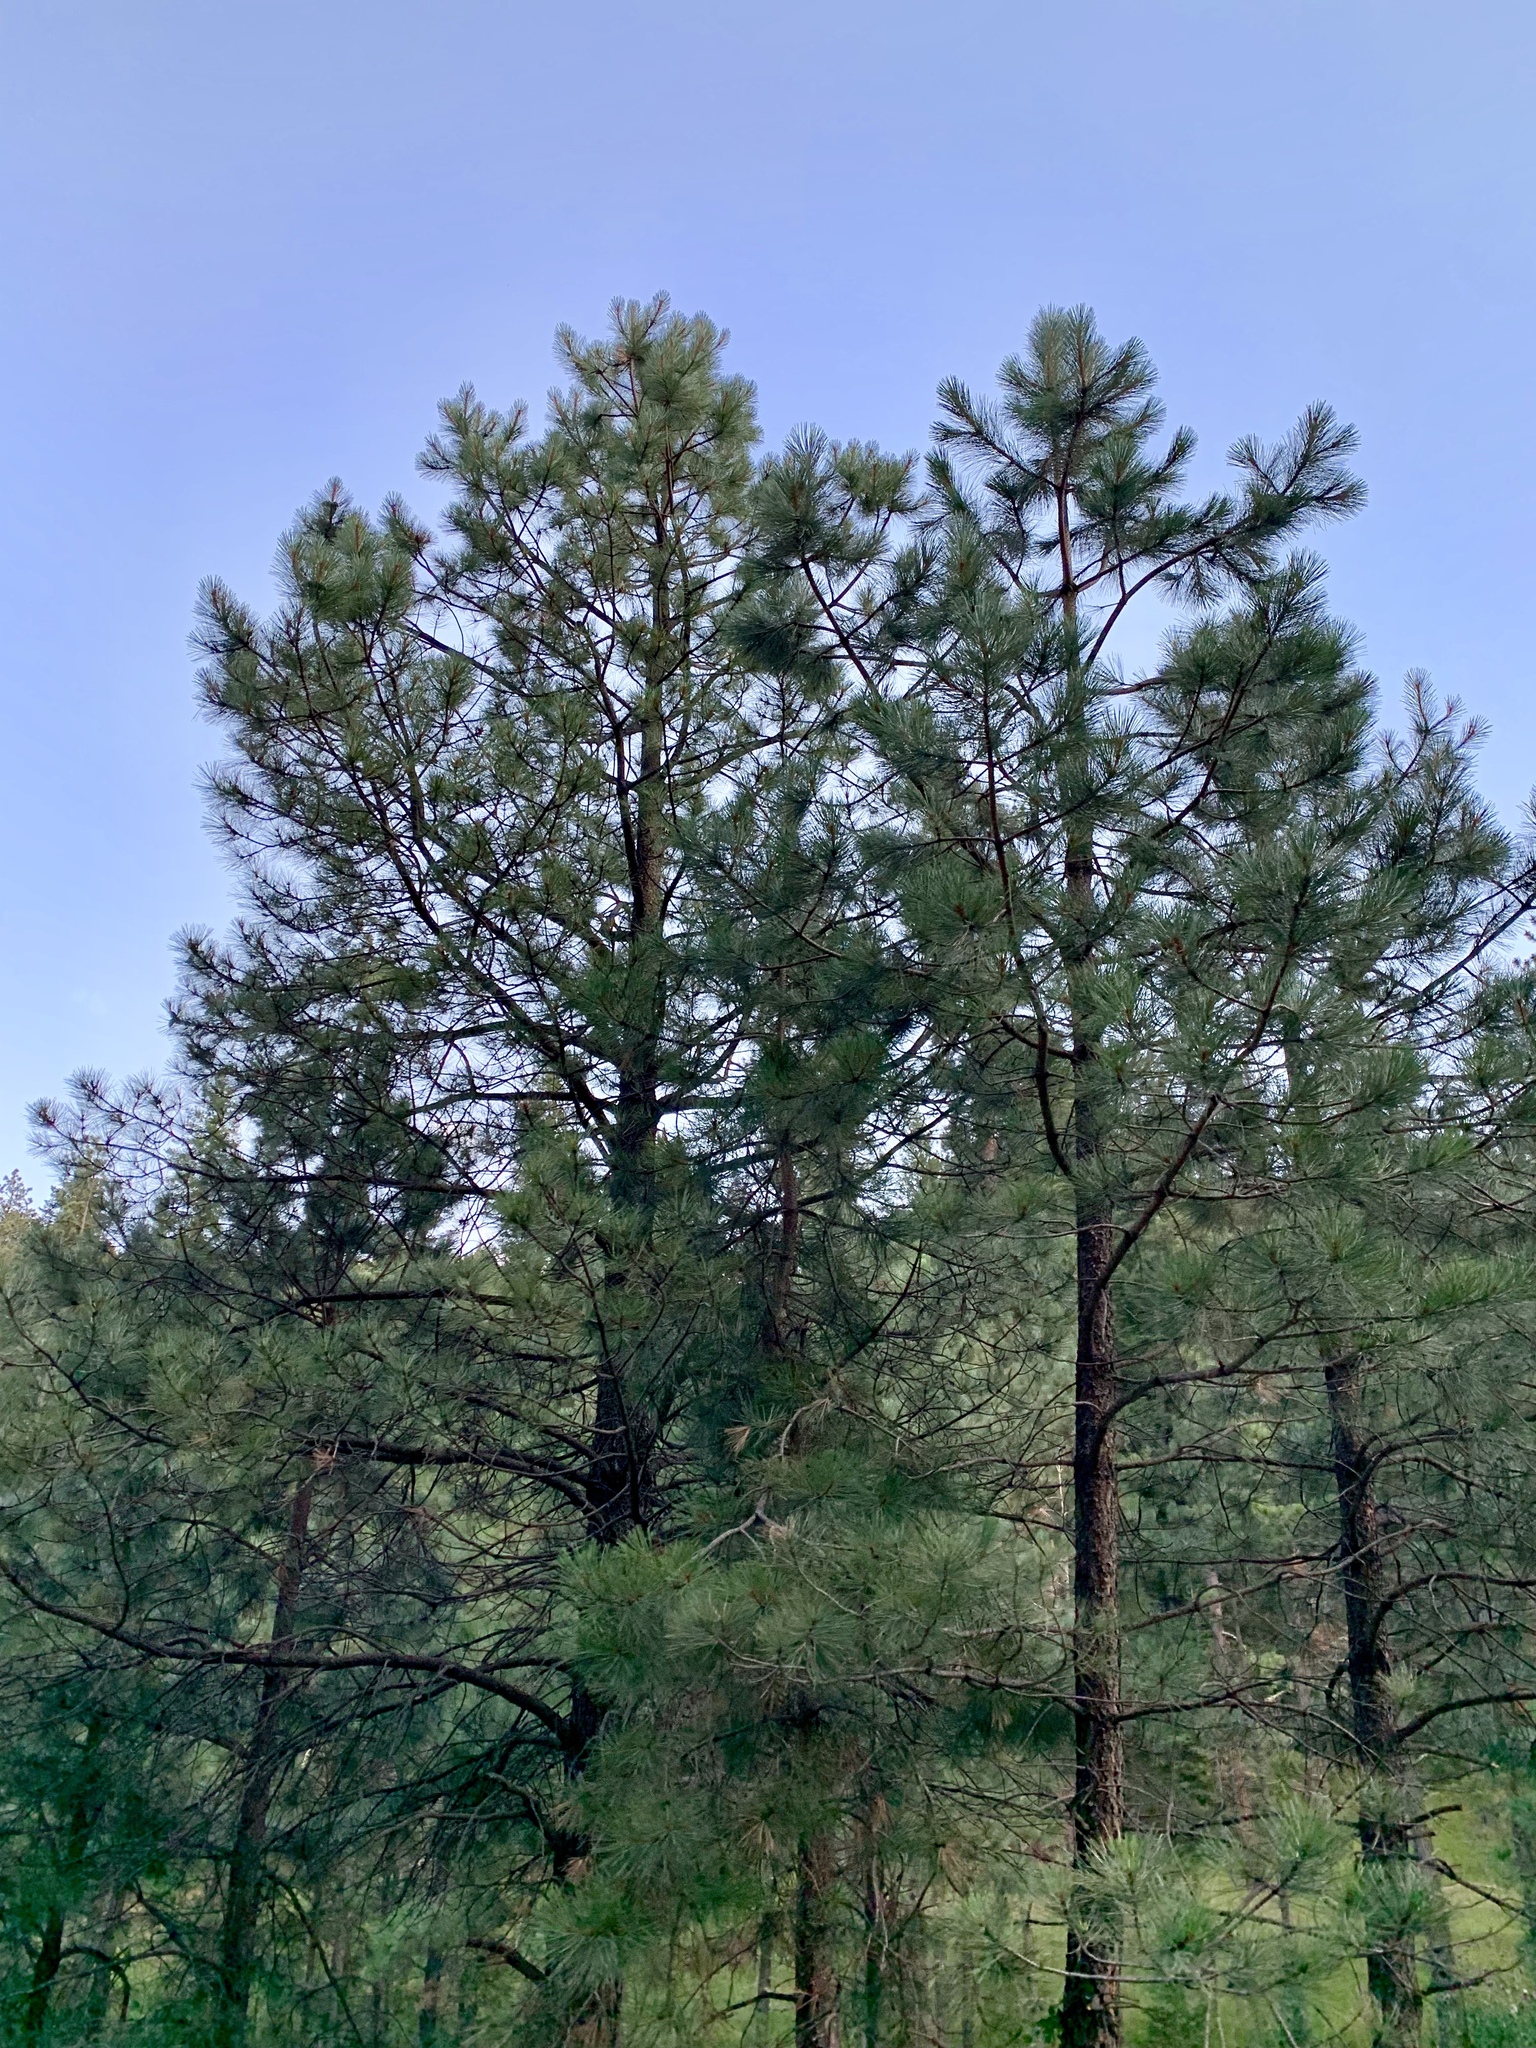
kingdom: Plantae
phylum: Tracheophyta
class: Pinopsida
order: Pinales
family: Pinaceae
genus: Pinus
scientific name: Pinus ponderosa
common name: Western yellow-pine
